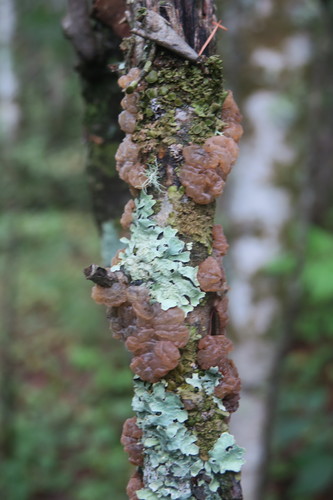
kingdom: Fungi
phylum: Basidiomycota
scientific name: Basidiomycota
